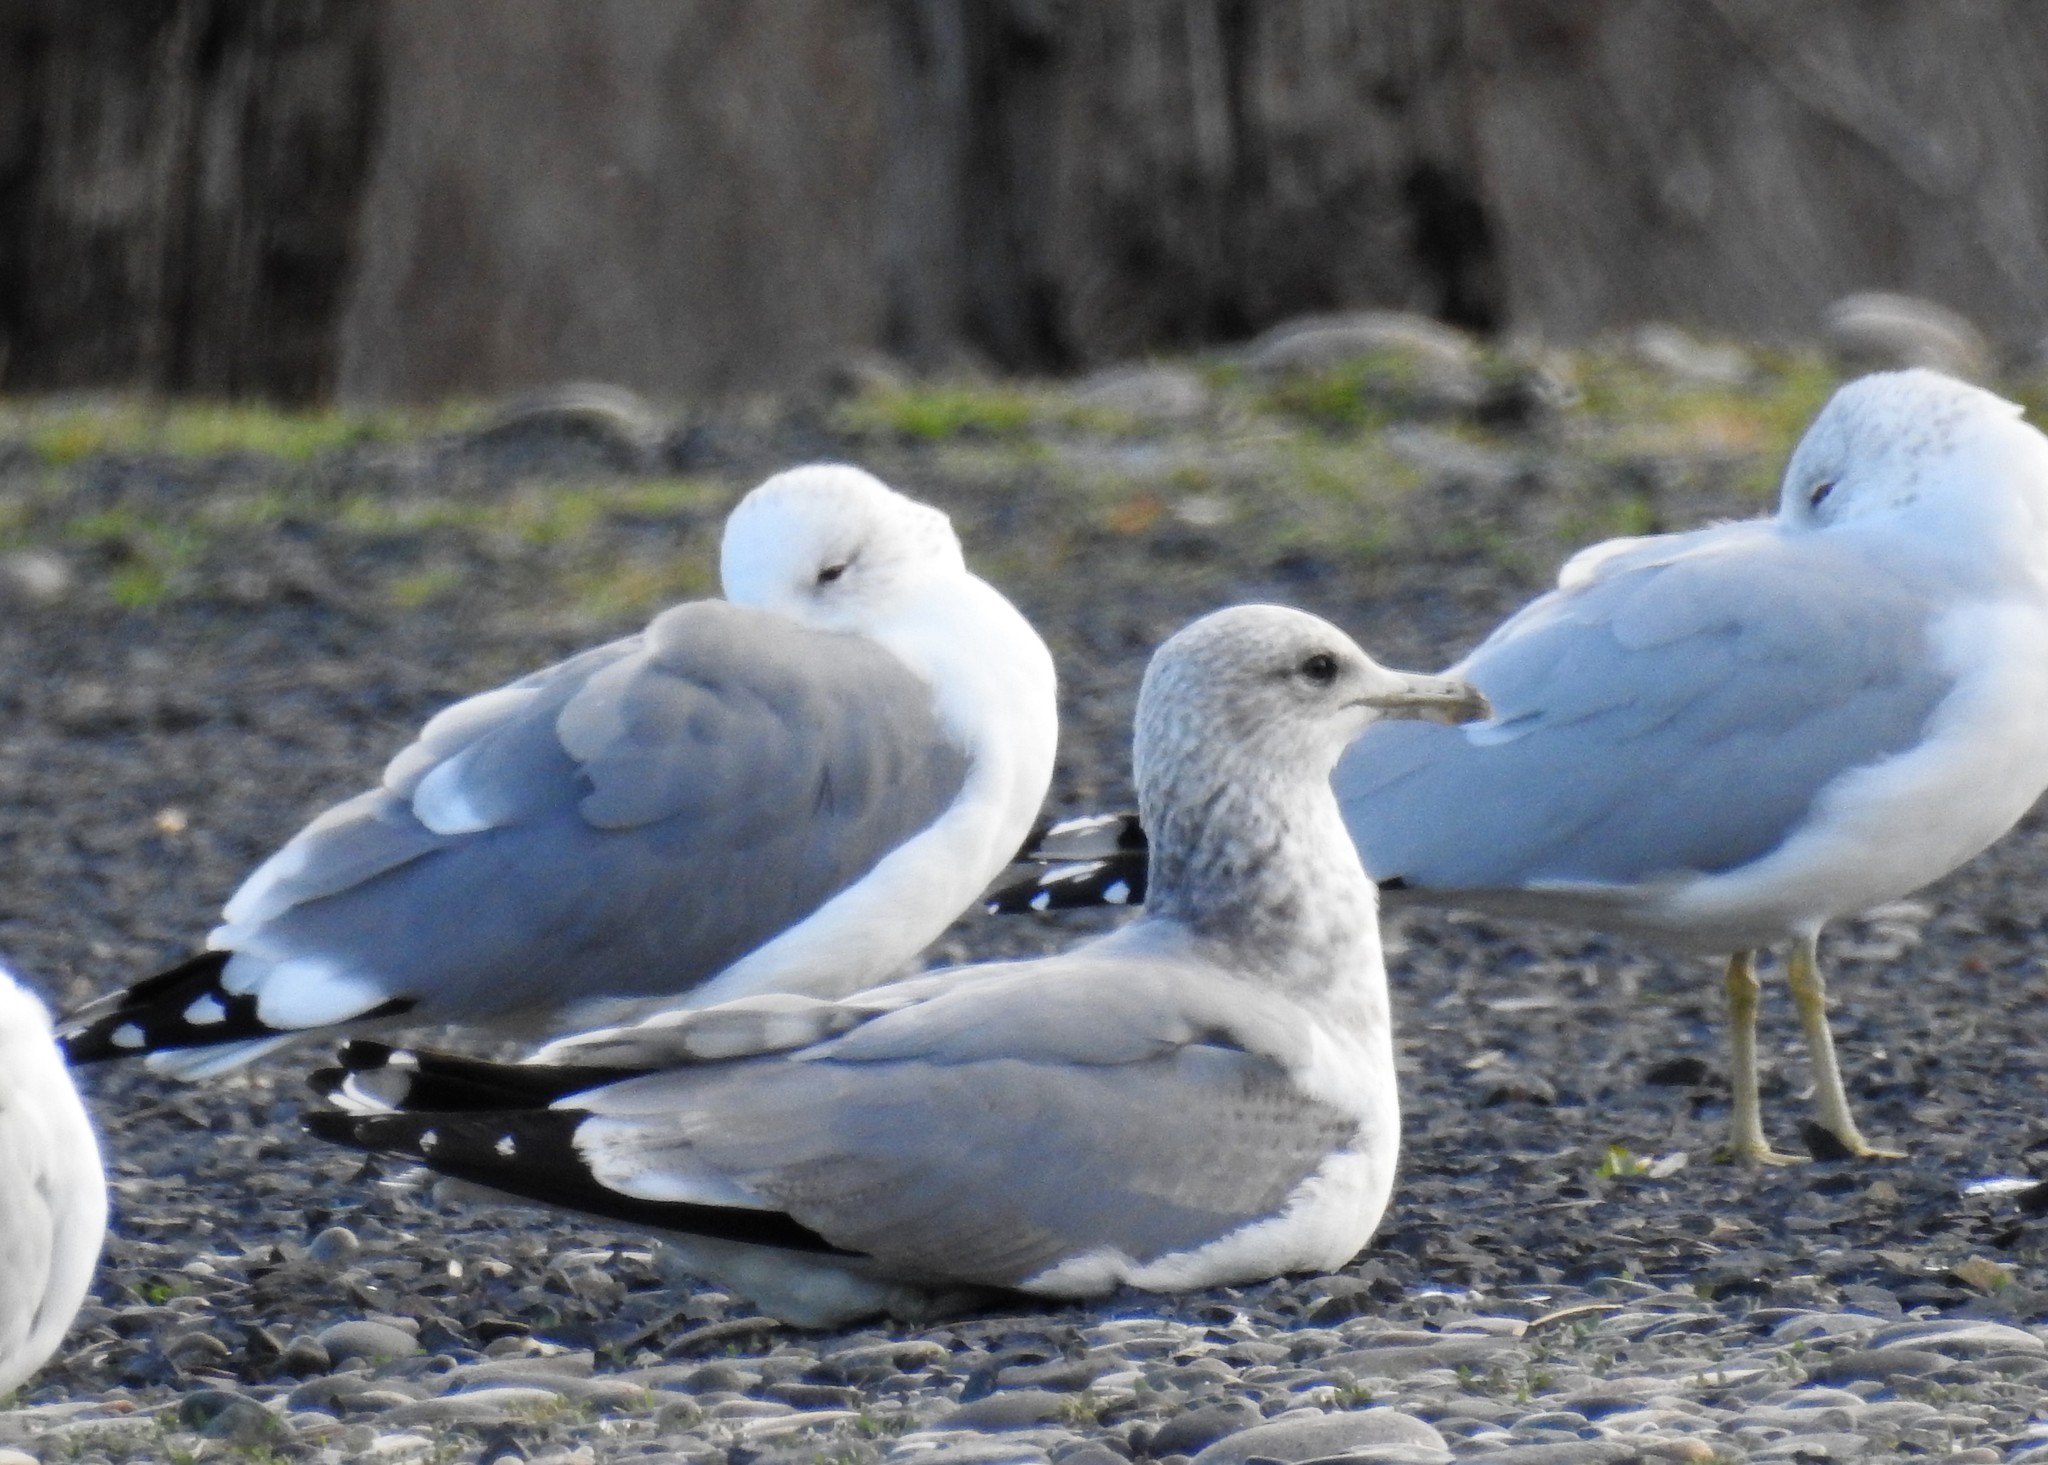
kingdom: Animalia
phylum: Chordata
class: Aves
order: Charadriiformes
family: Laridae
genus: Larus
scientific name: Larus californicus
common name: California gull
